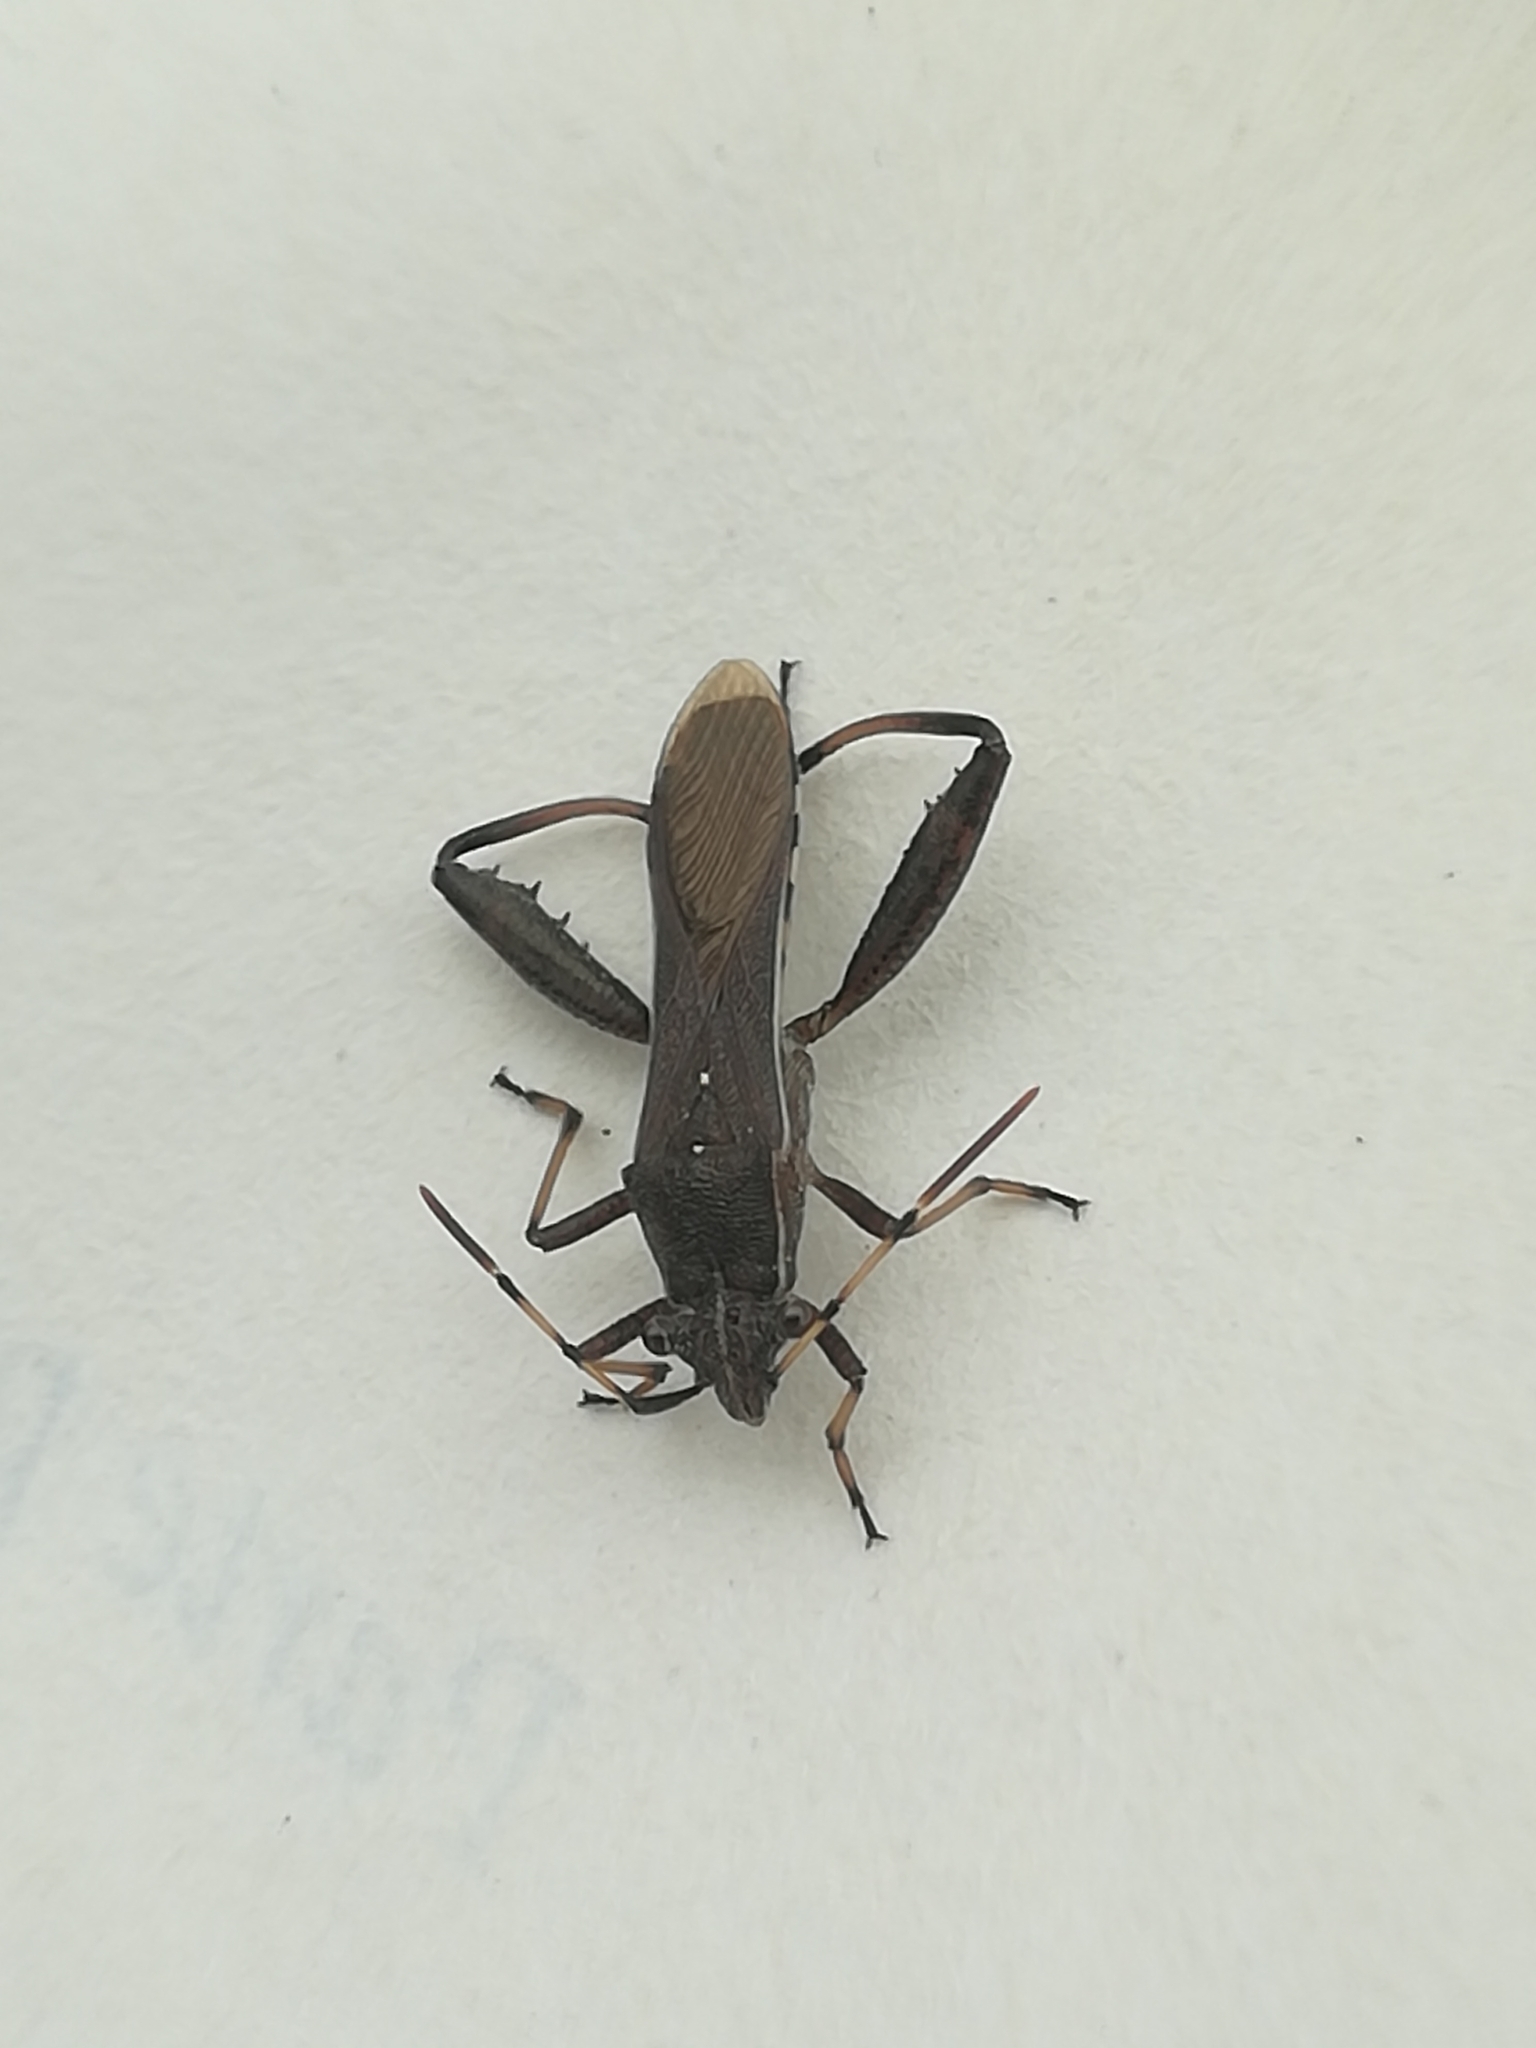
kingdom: Animalia
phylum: Arthropoda
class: Insecta
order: Hemiptera
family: Alydidae
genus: Camptopus
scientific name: Camptopus lateralis
